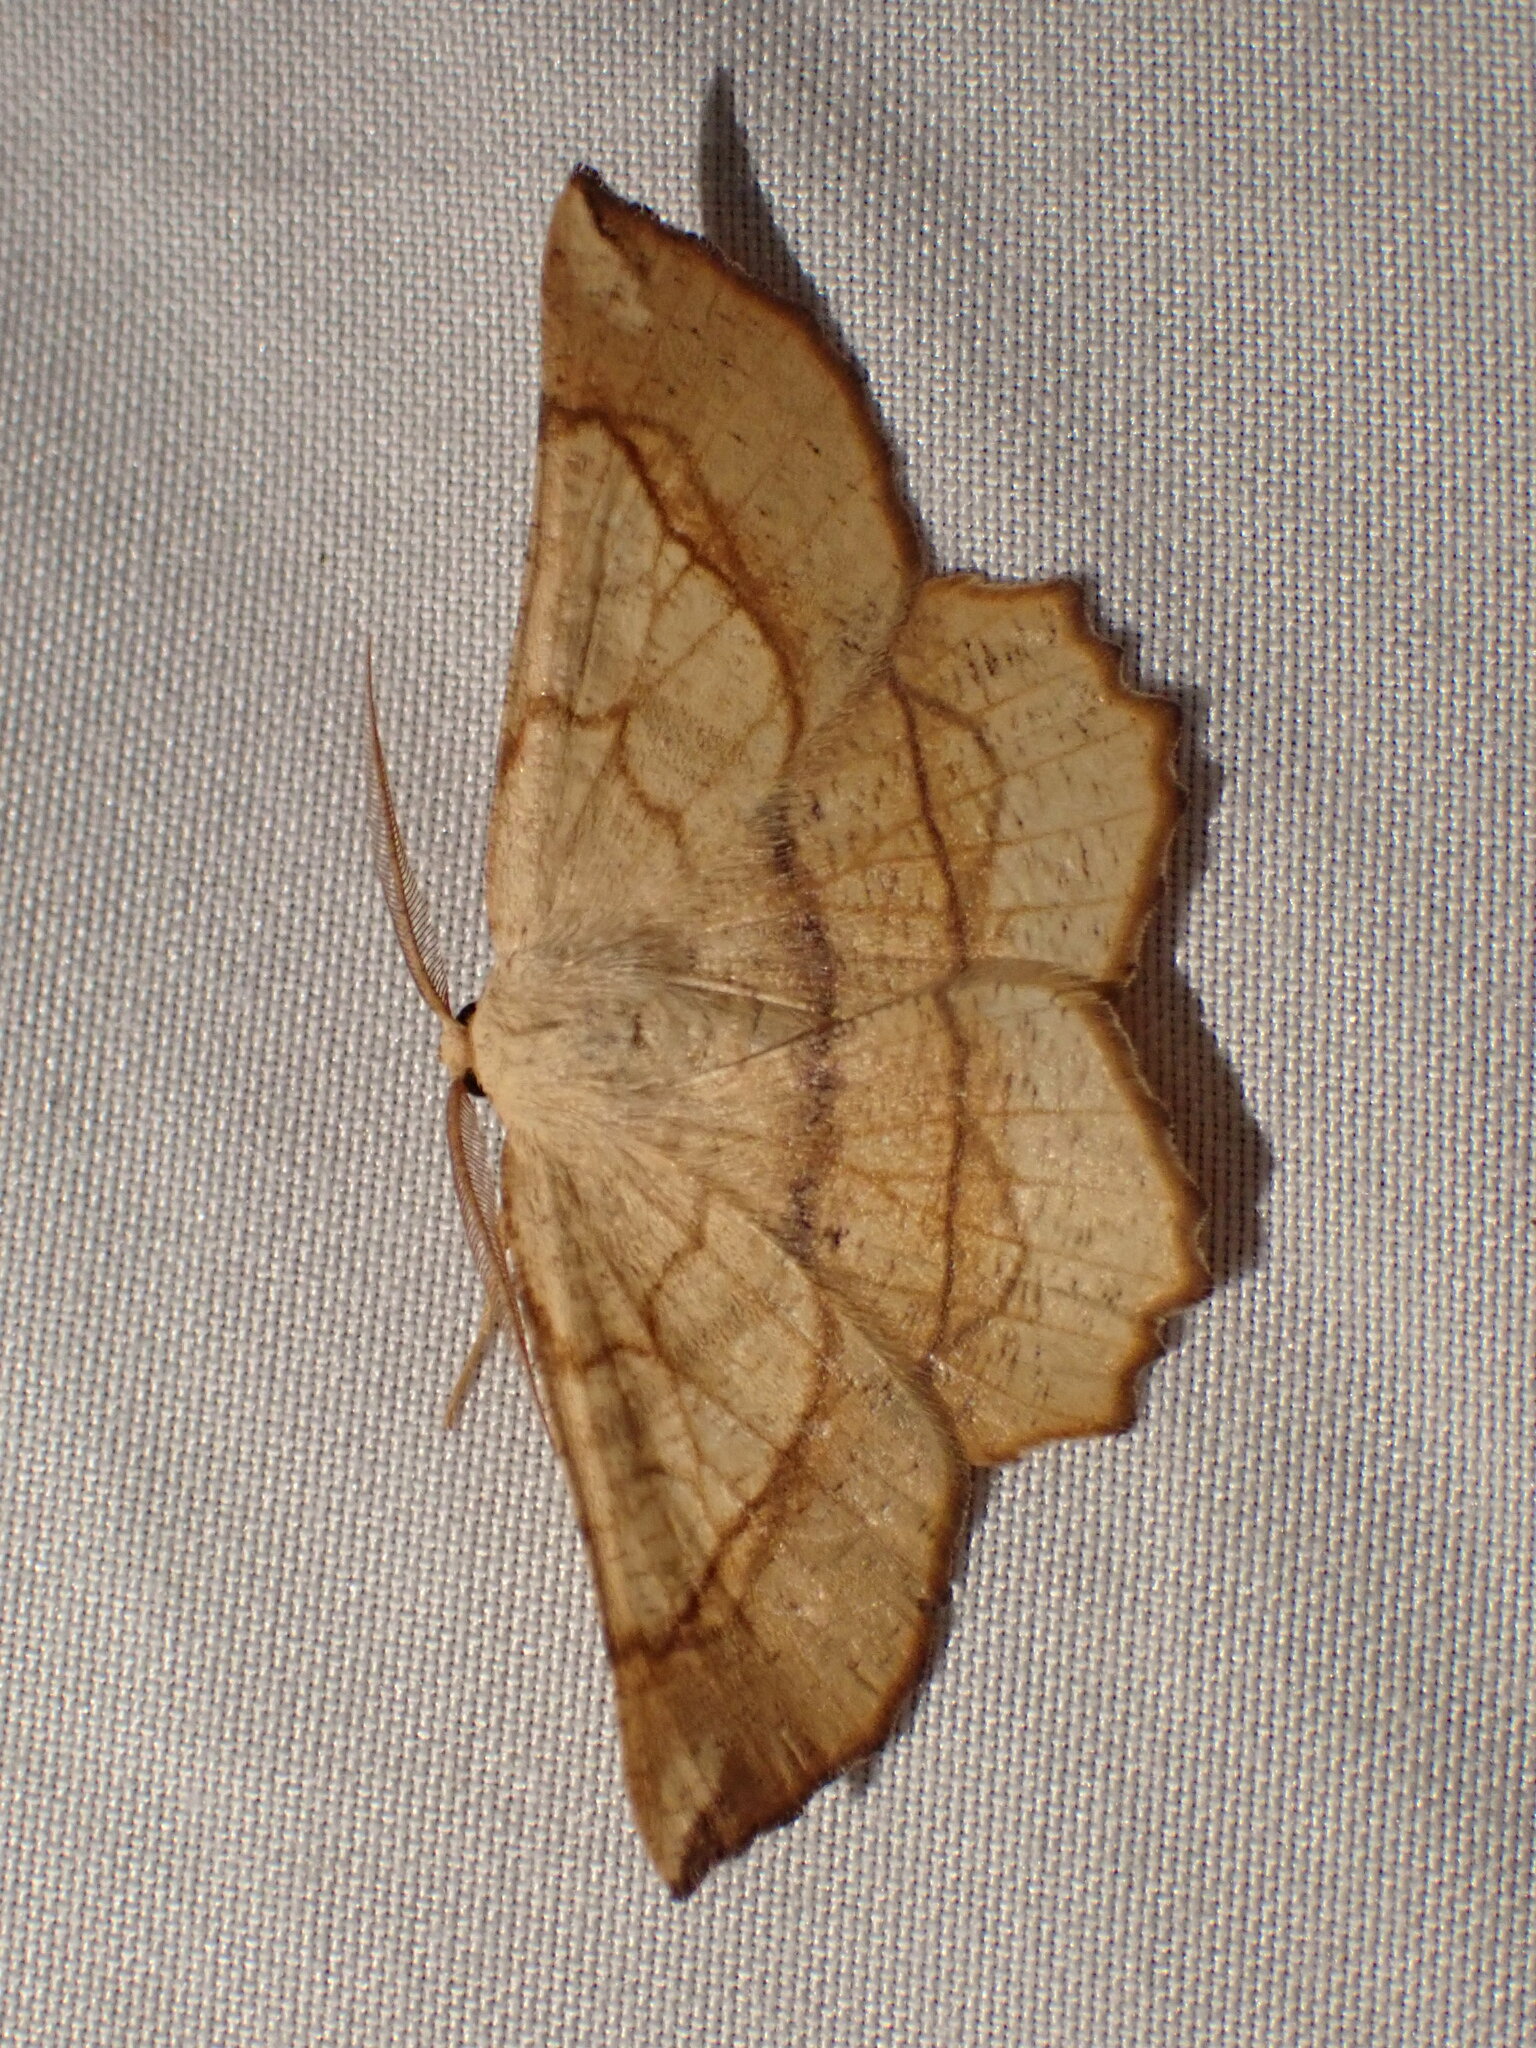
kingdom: Animalia
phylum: Arthropoda
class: Insecta
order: Lepidoptera
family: Geometridae
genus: Euchlaena
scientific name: Euchlaena madusaria
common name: Scrub euchlaena moth
